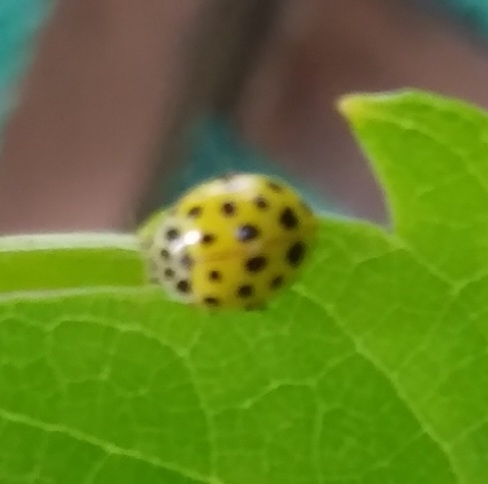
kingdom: Animalia
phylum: Arthropoda
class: Insecta
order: Coleoptera
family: Coccinellidae
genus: Psyllobora
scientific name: Psyllobora vigintiduopunctata
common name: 22-spot ladybird
